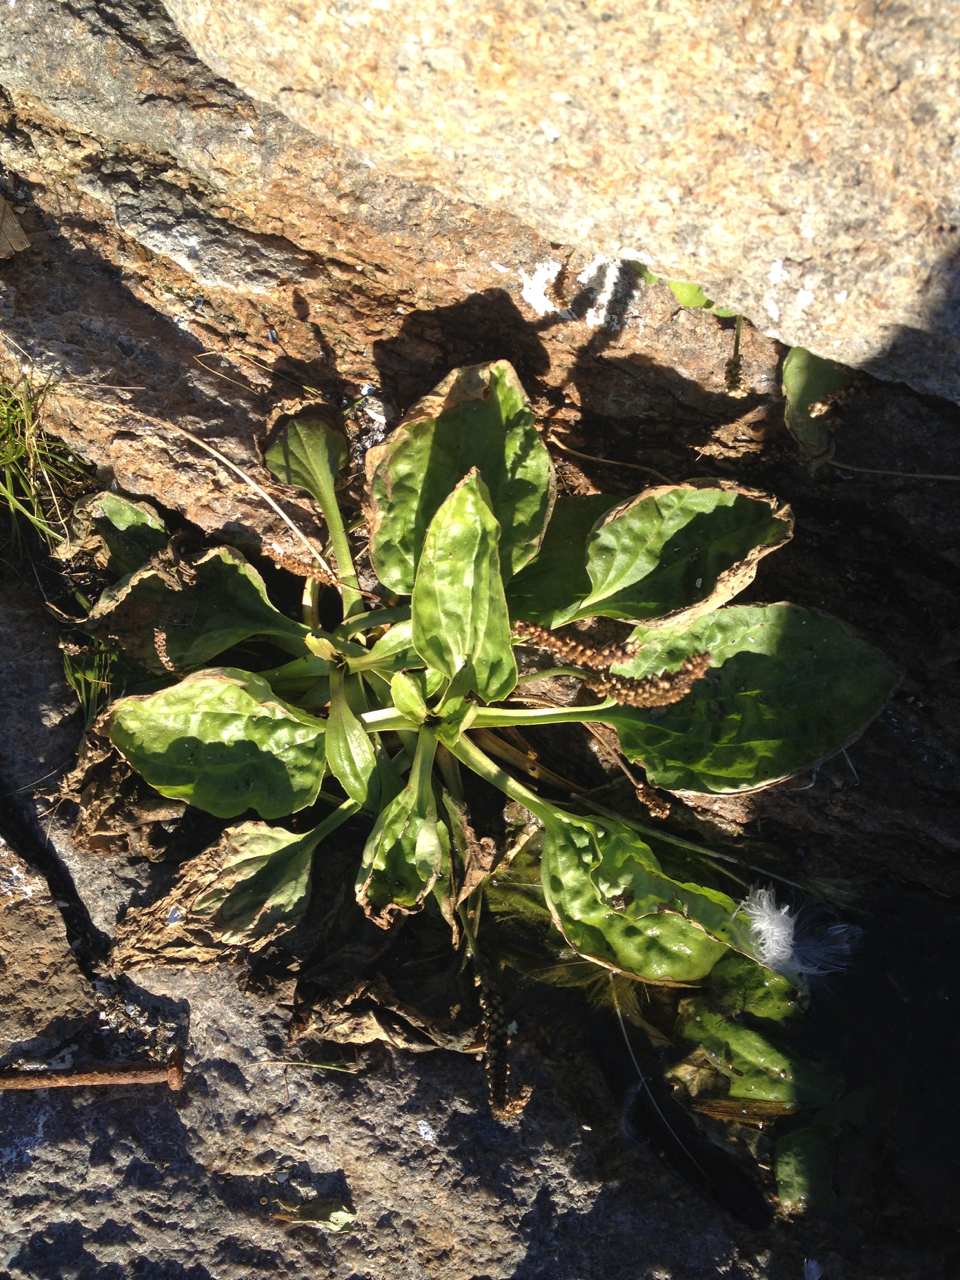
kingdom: Plantae
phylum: Tracheophyta
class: Magnoliopsida
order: Lamiales
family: Plantaginaceae
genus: Plantago
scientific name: Plantago major
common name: Common plantain
